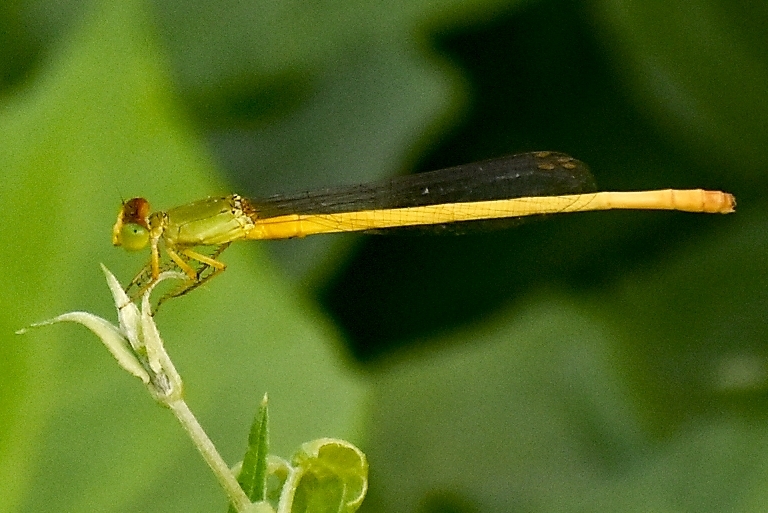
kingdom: Animalia
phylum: Arthropoda
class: Insecta
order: Odonata
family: Coenagrionidae
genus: Ceriagrion
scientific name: Ceriagrion coromandelianum
